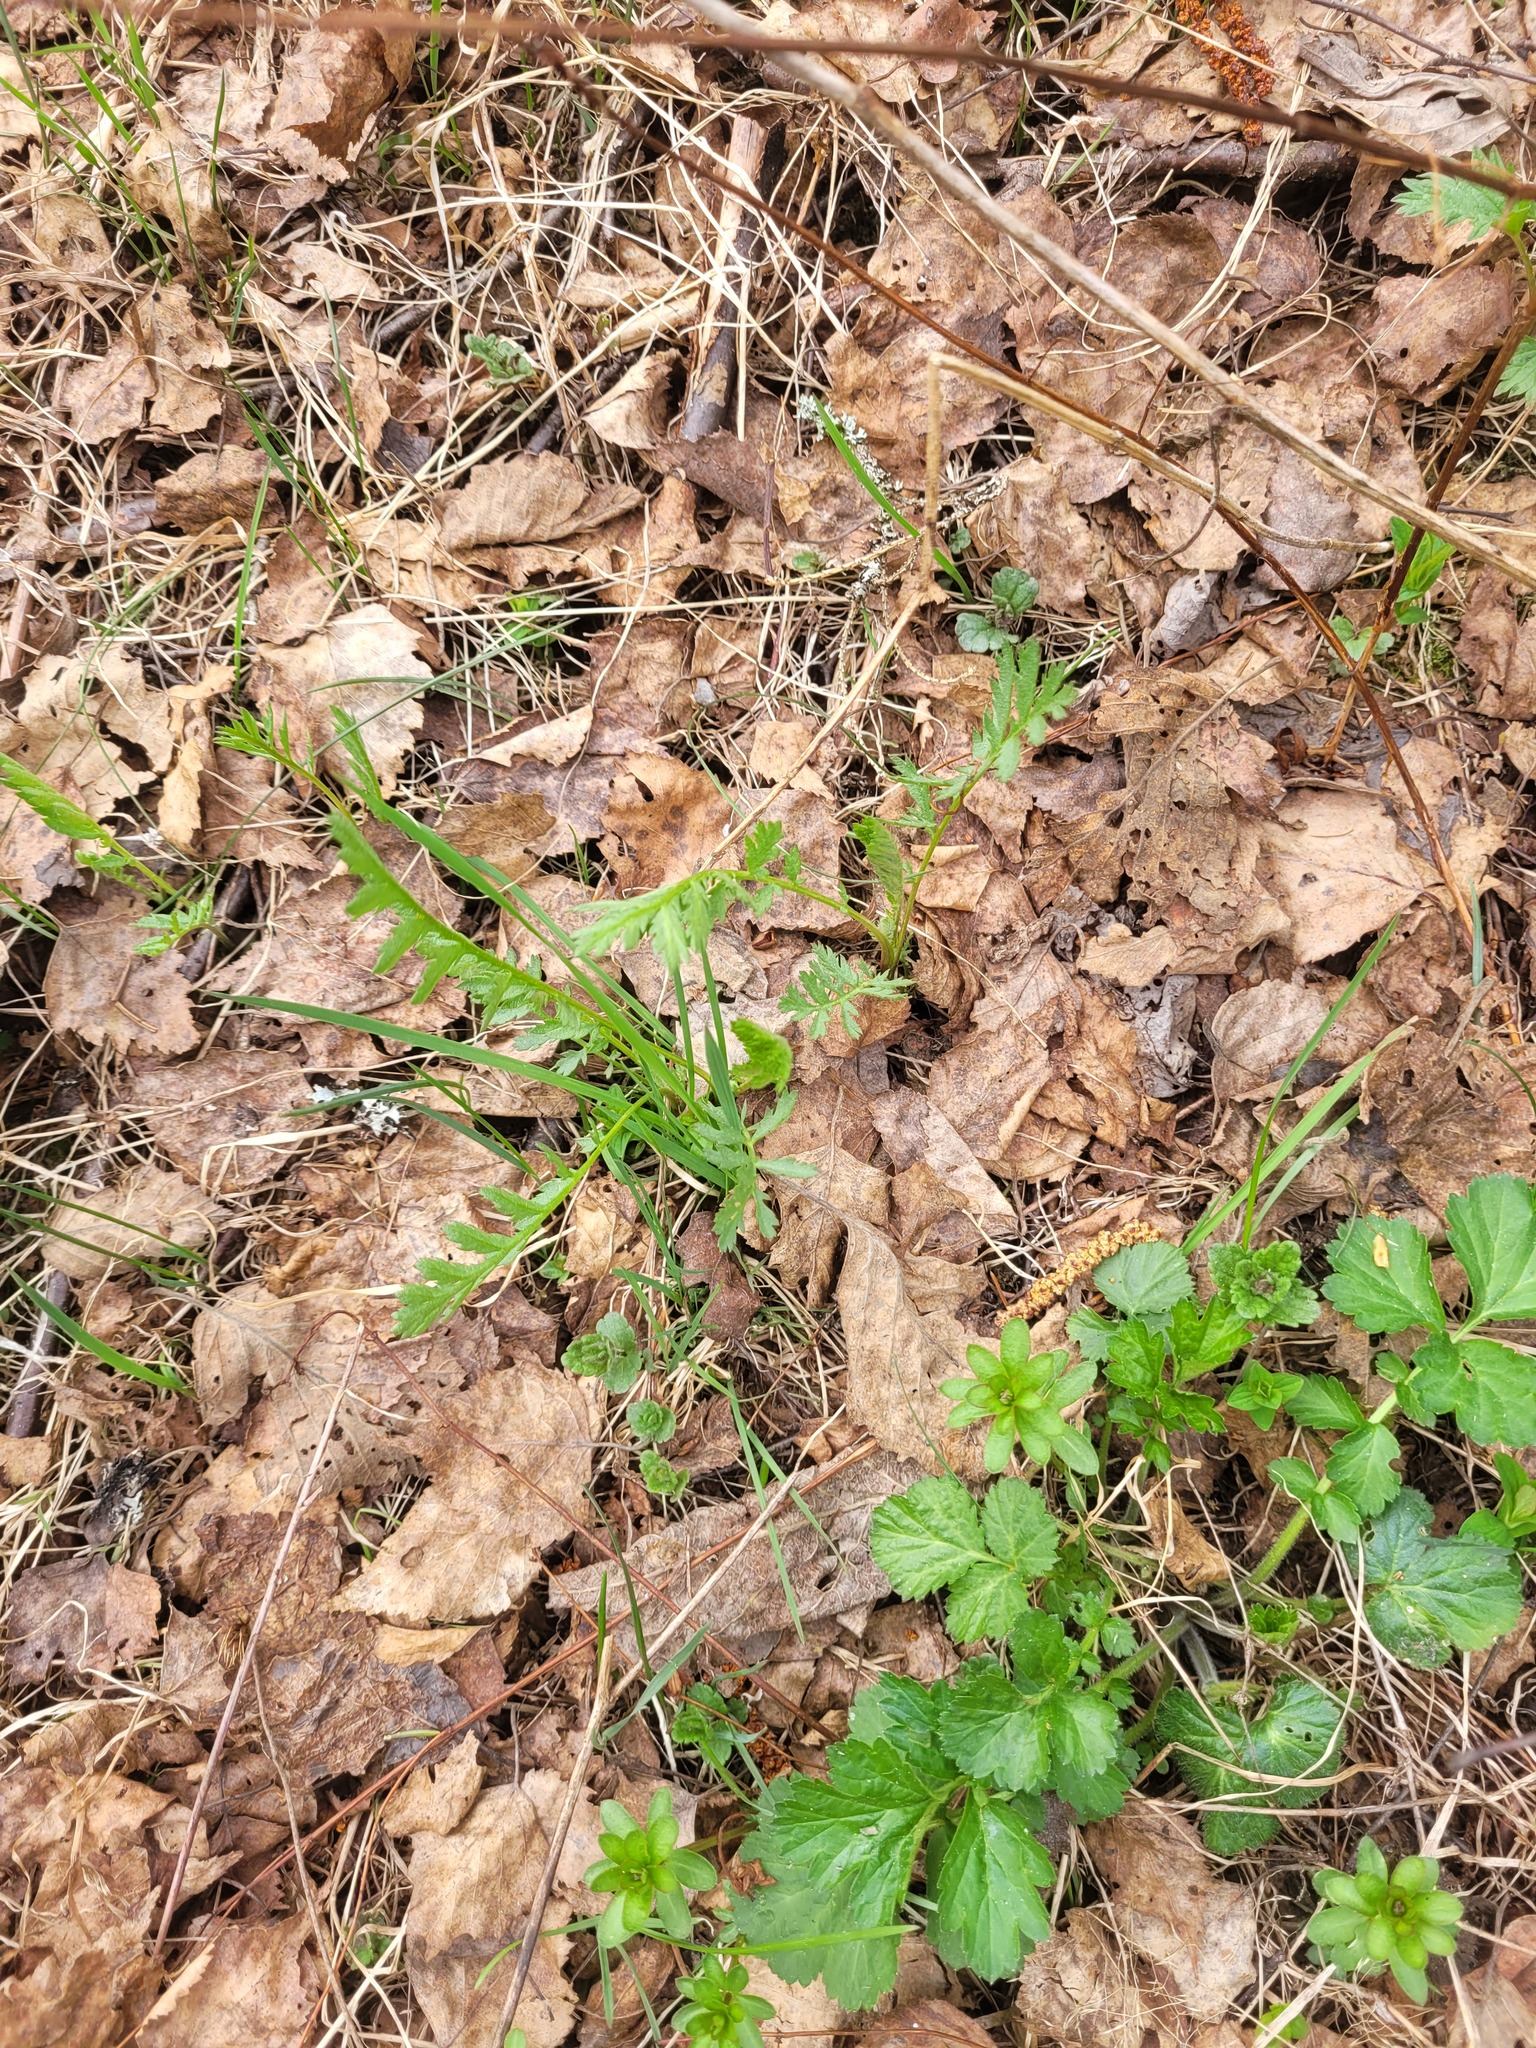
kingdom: Plantae
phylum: Tracheophyta
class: Magnoliopsida
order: Asterales
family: Asteraceae
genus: Tanacetum
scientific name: Tanacetum vulgare
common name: Common tansy
